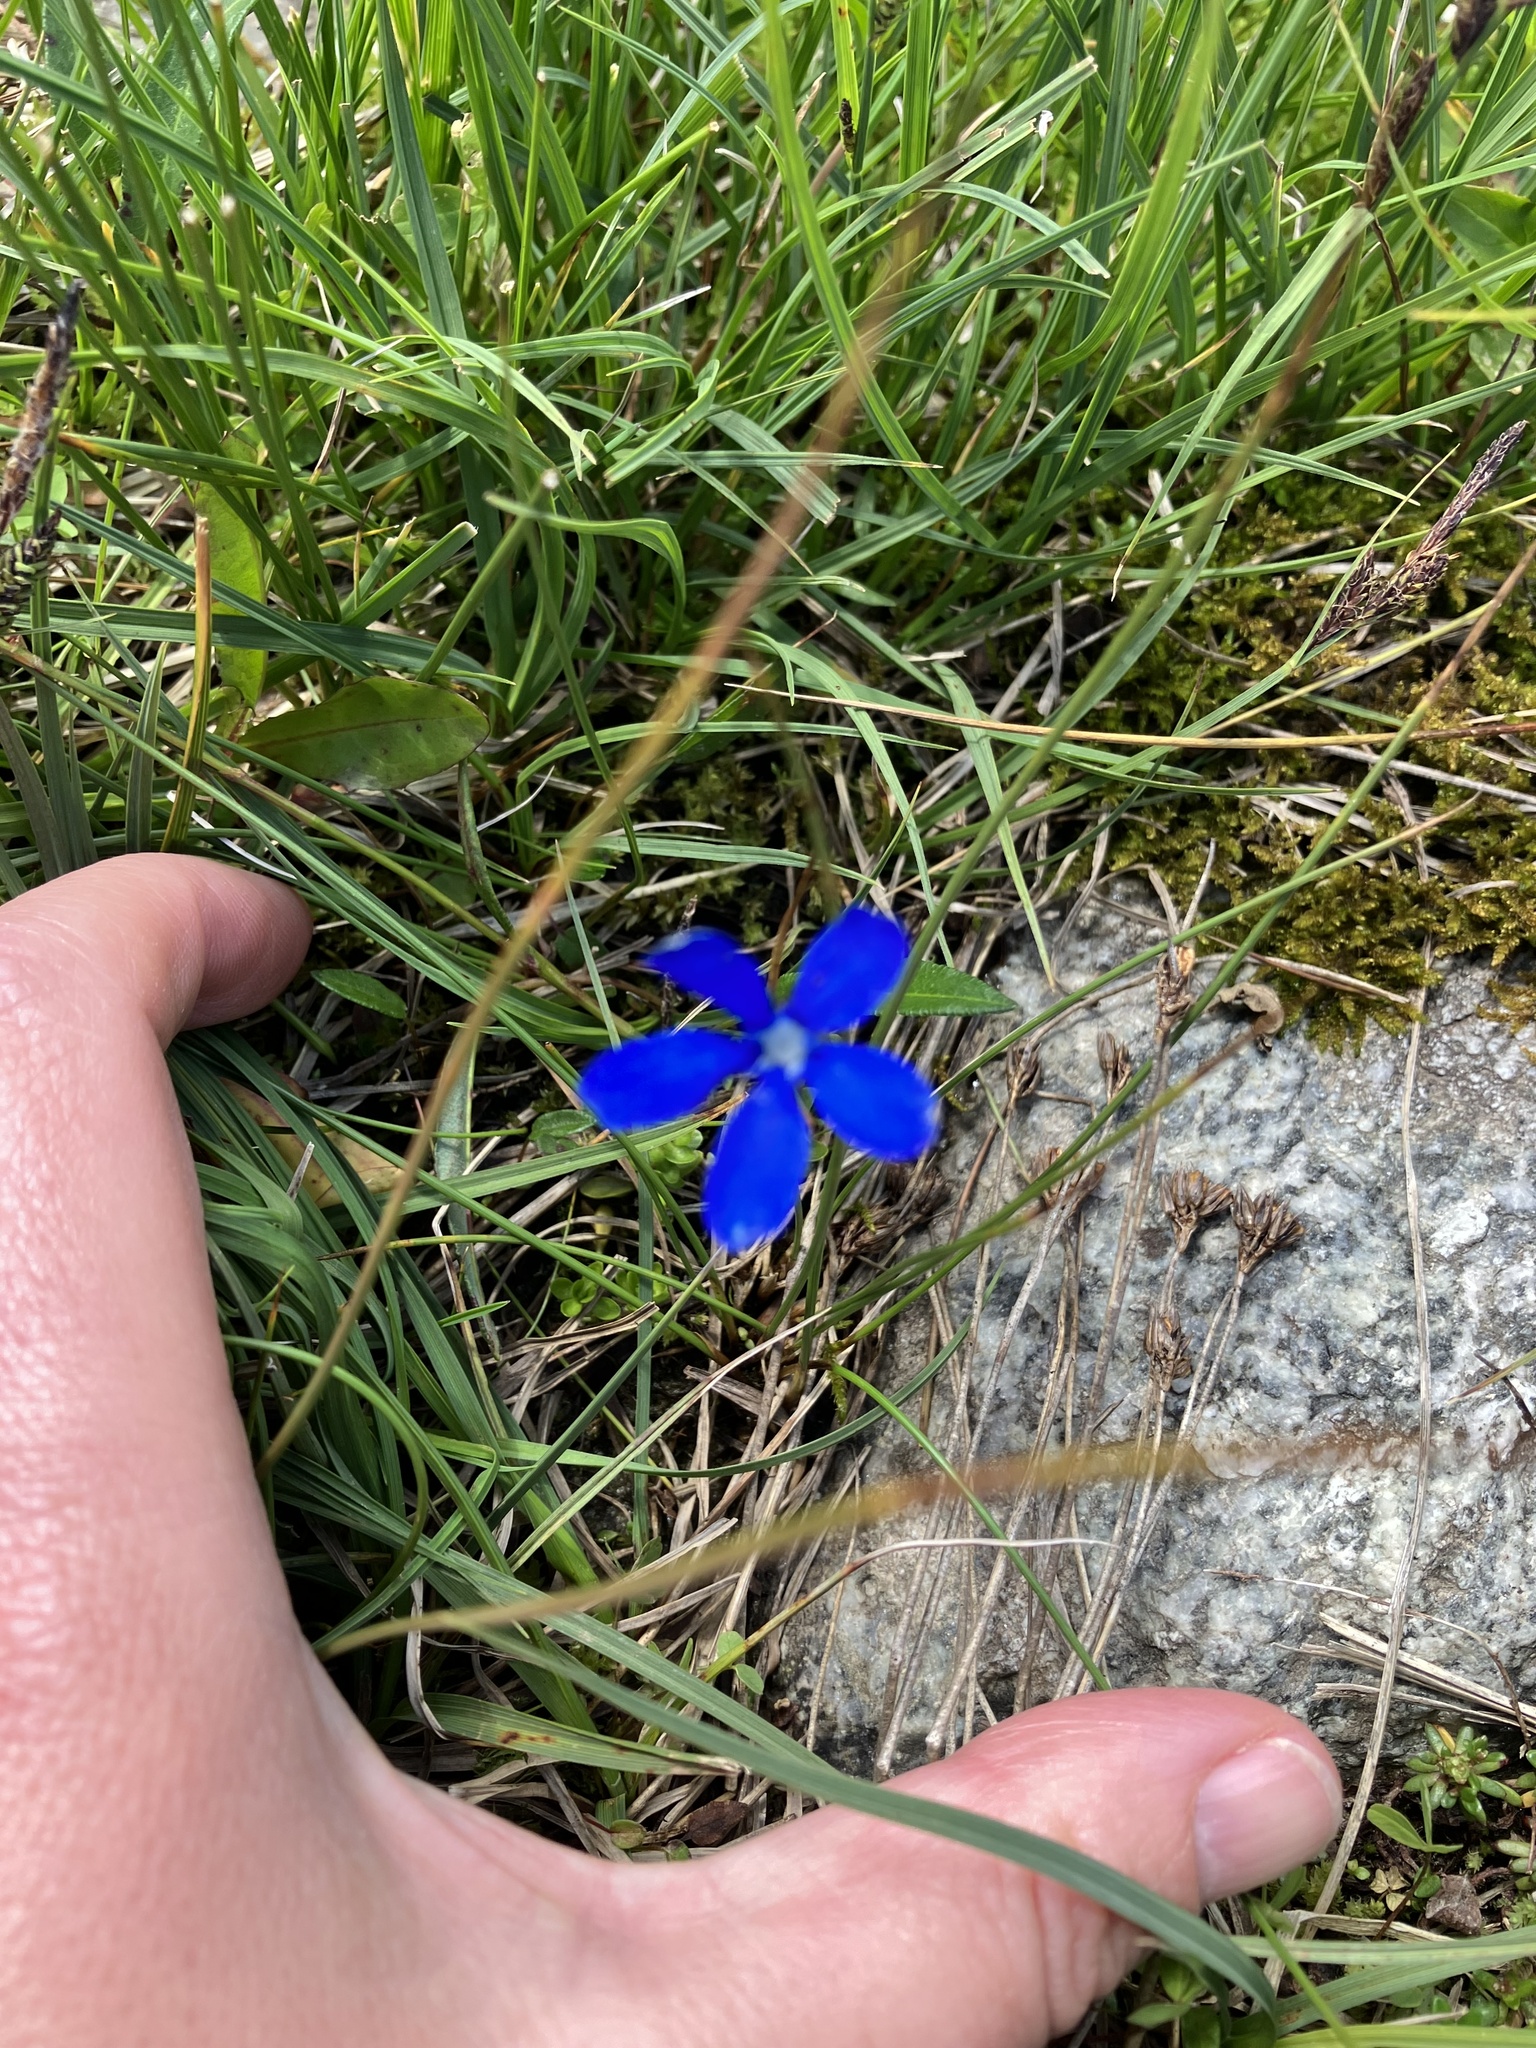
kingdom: Plantae
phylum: Tracheophyta
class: Magnoliopsida
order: Gentianales
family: Gentianaceae
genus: Gentiana
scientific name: Gentiana bavarica
